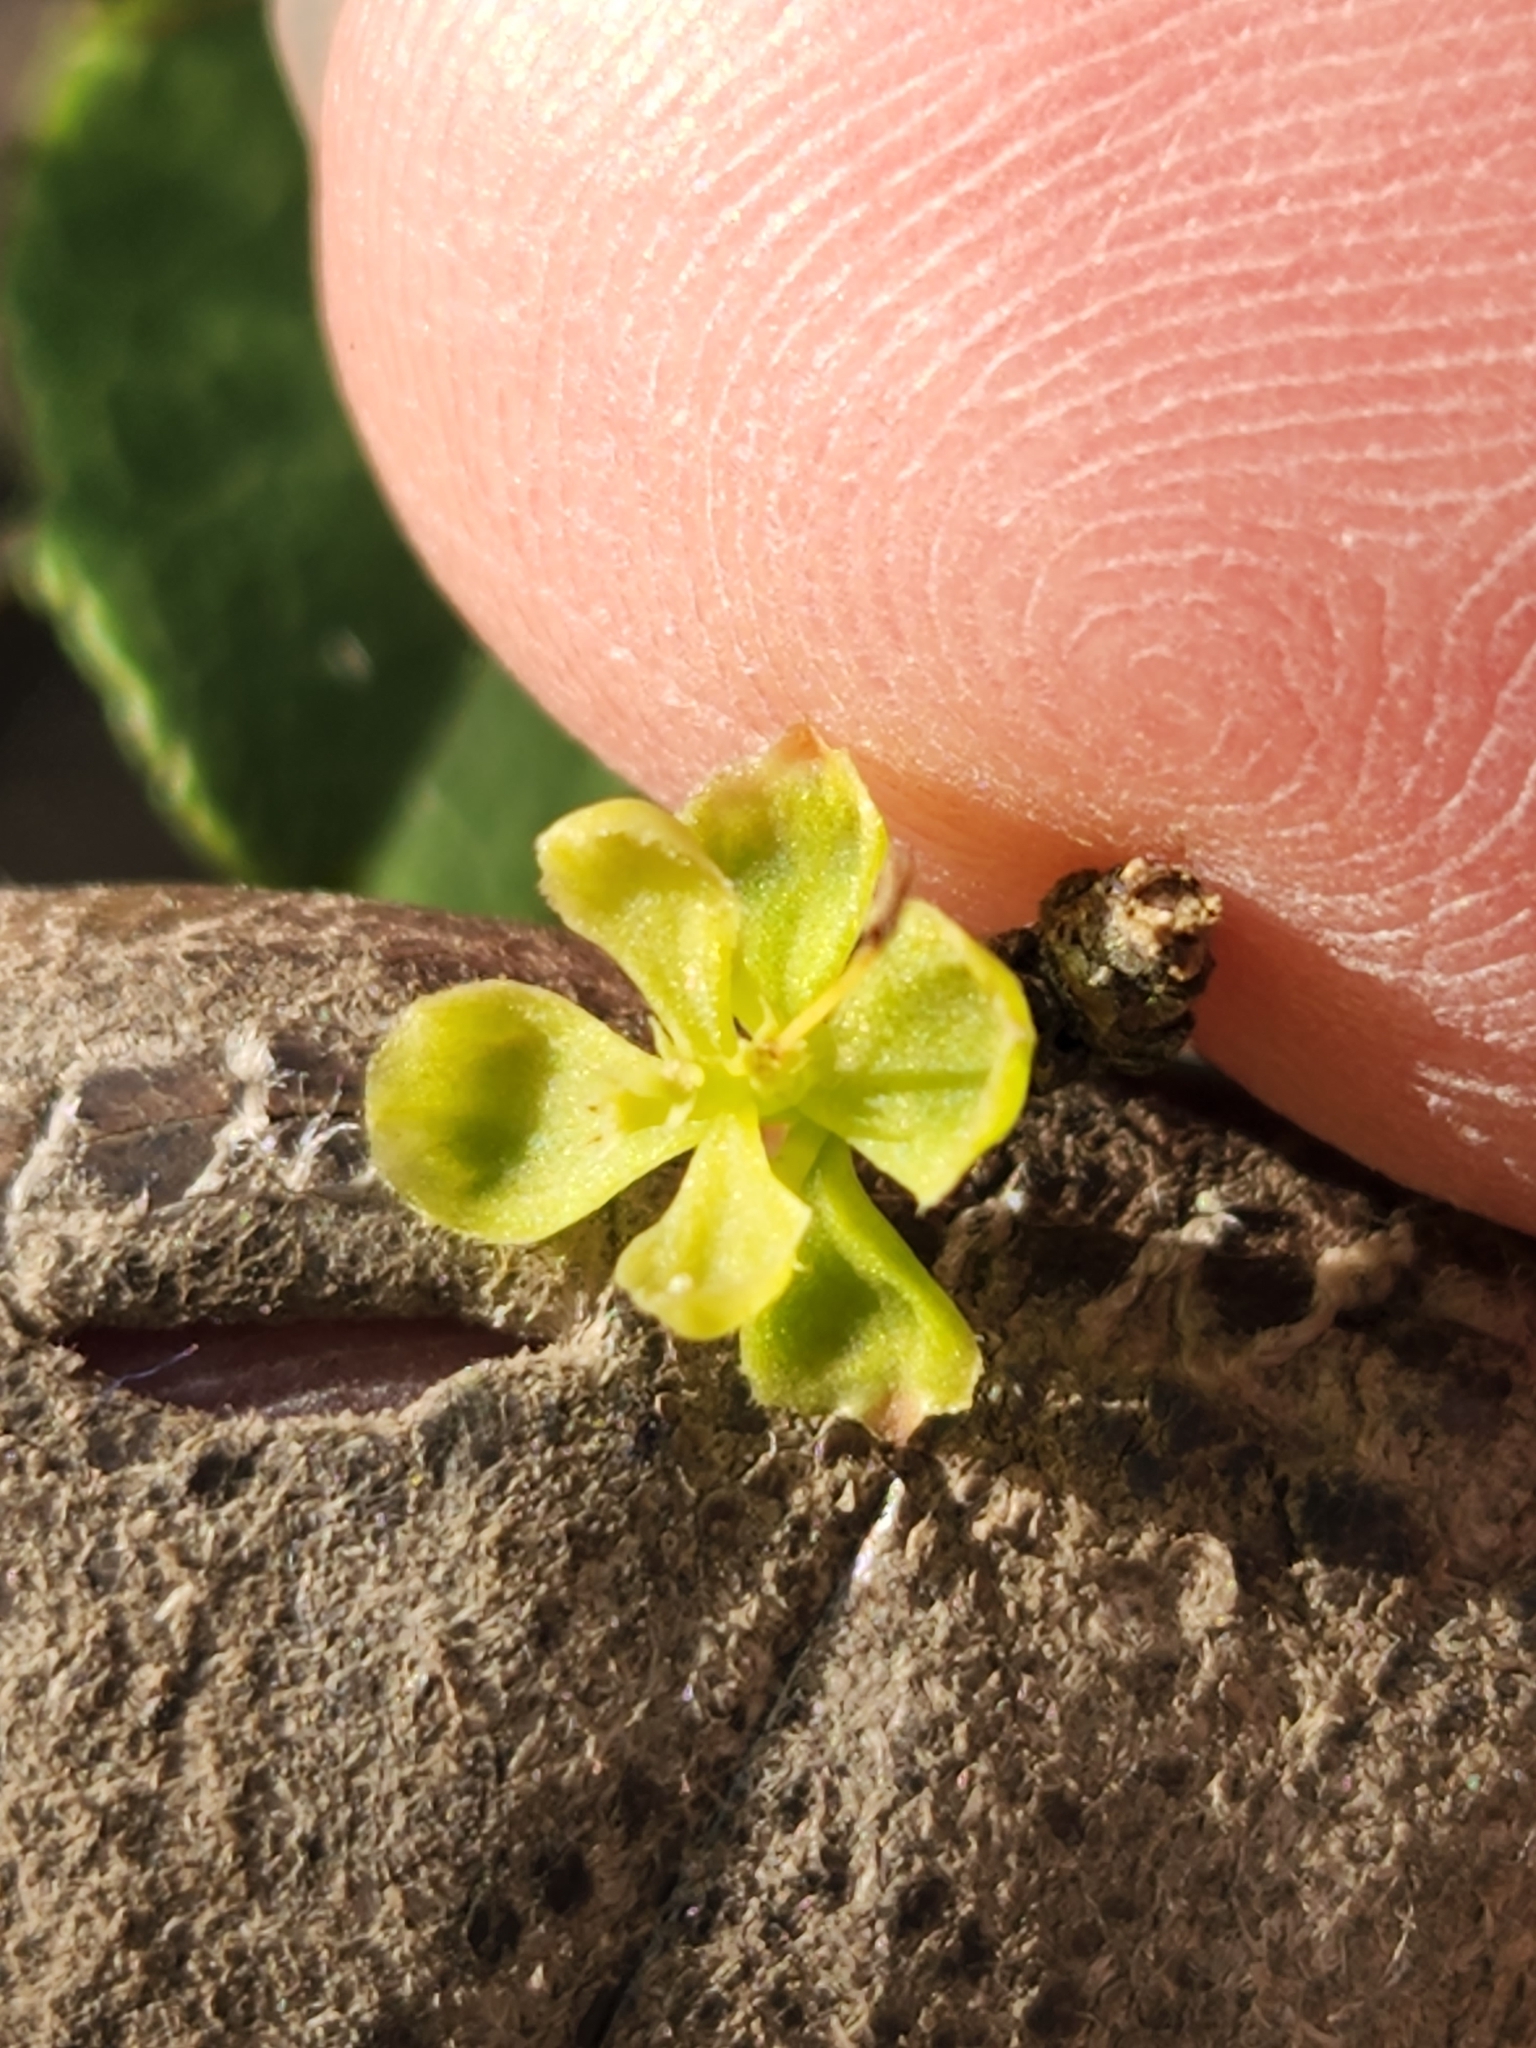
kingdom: Plantae
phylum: Tracheophyta
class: Magnoliopsida
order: Lamiales
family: Oleaceae
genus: Forestiera
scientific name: Forestiera reticulata
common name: Netleaf swamp-privet
